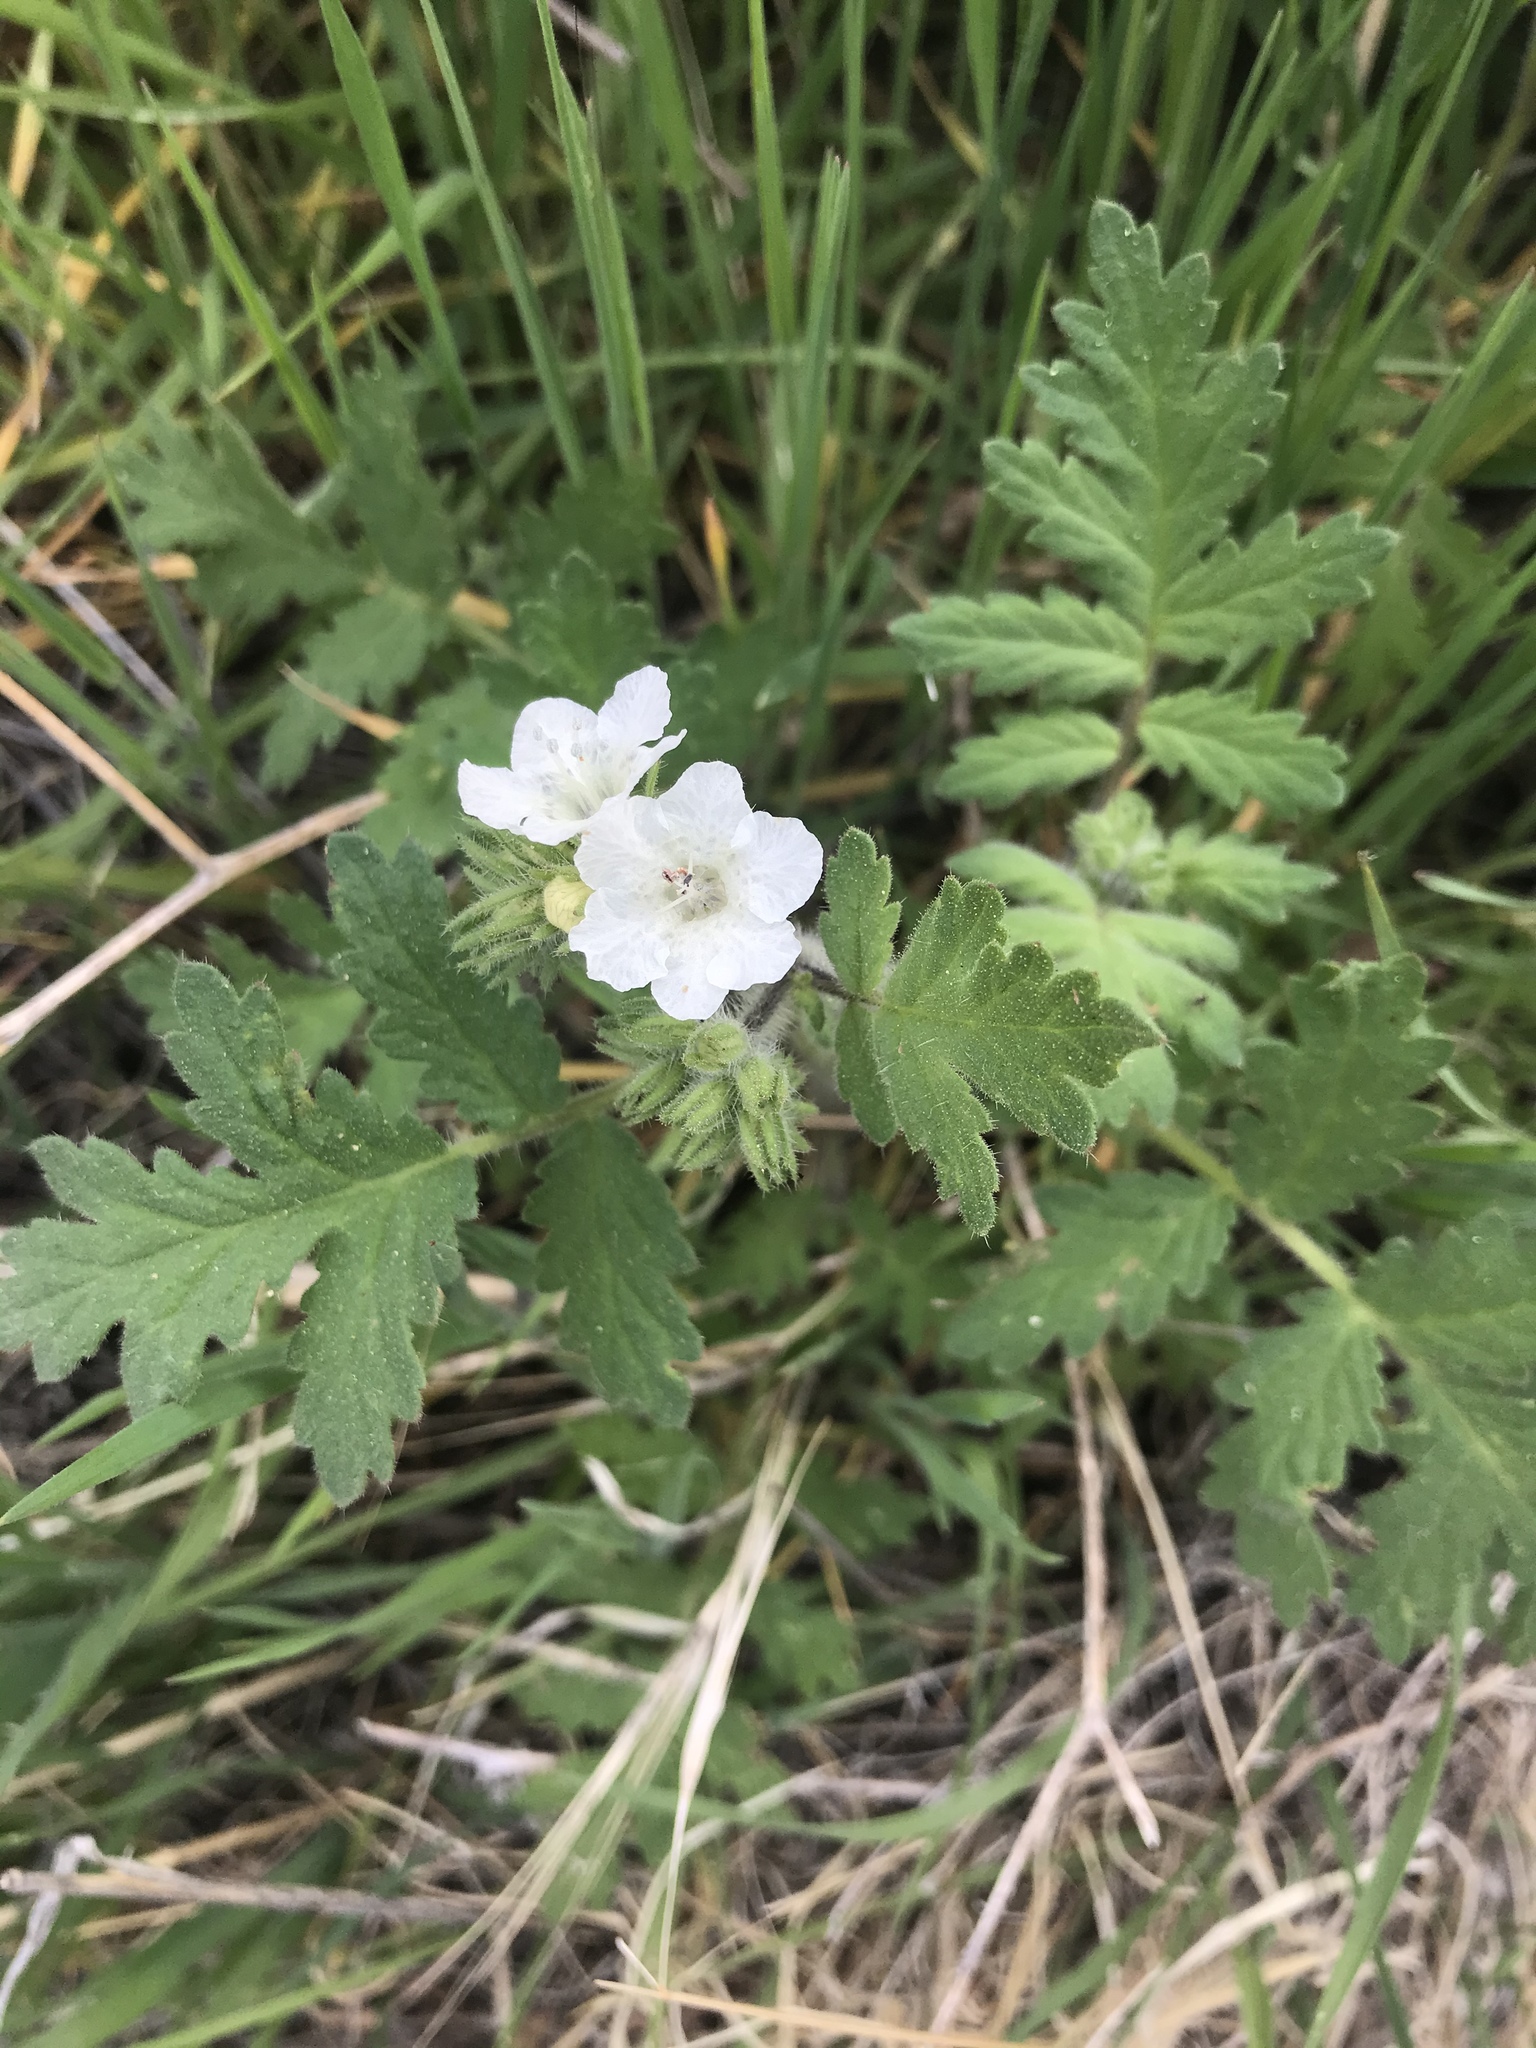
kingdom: Plantae
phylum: Tracheophyta
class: Magnoliopsida
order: Boraginales
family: Hydrophyllaceae
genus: Phacelia
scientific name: Phacelia cicutaria
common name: Caterpillar phacelia
